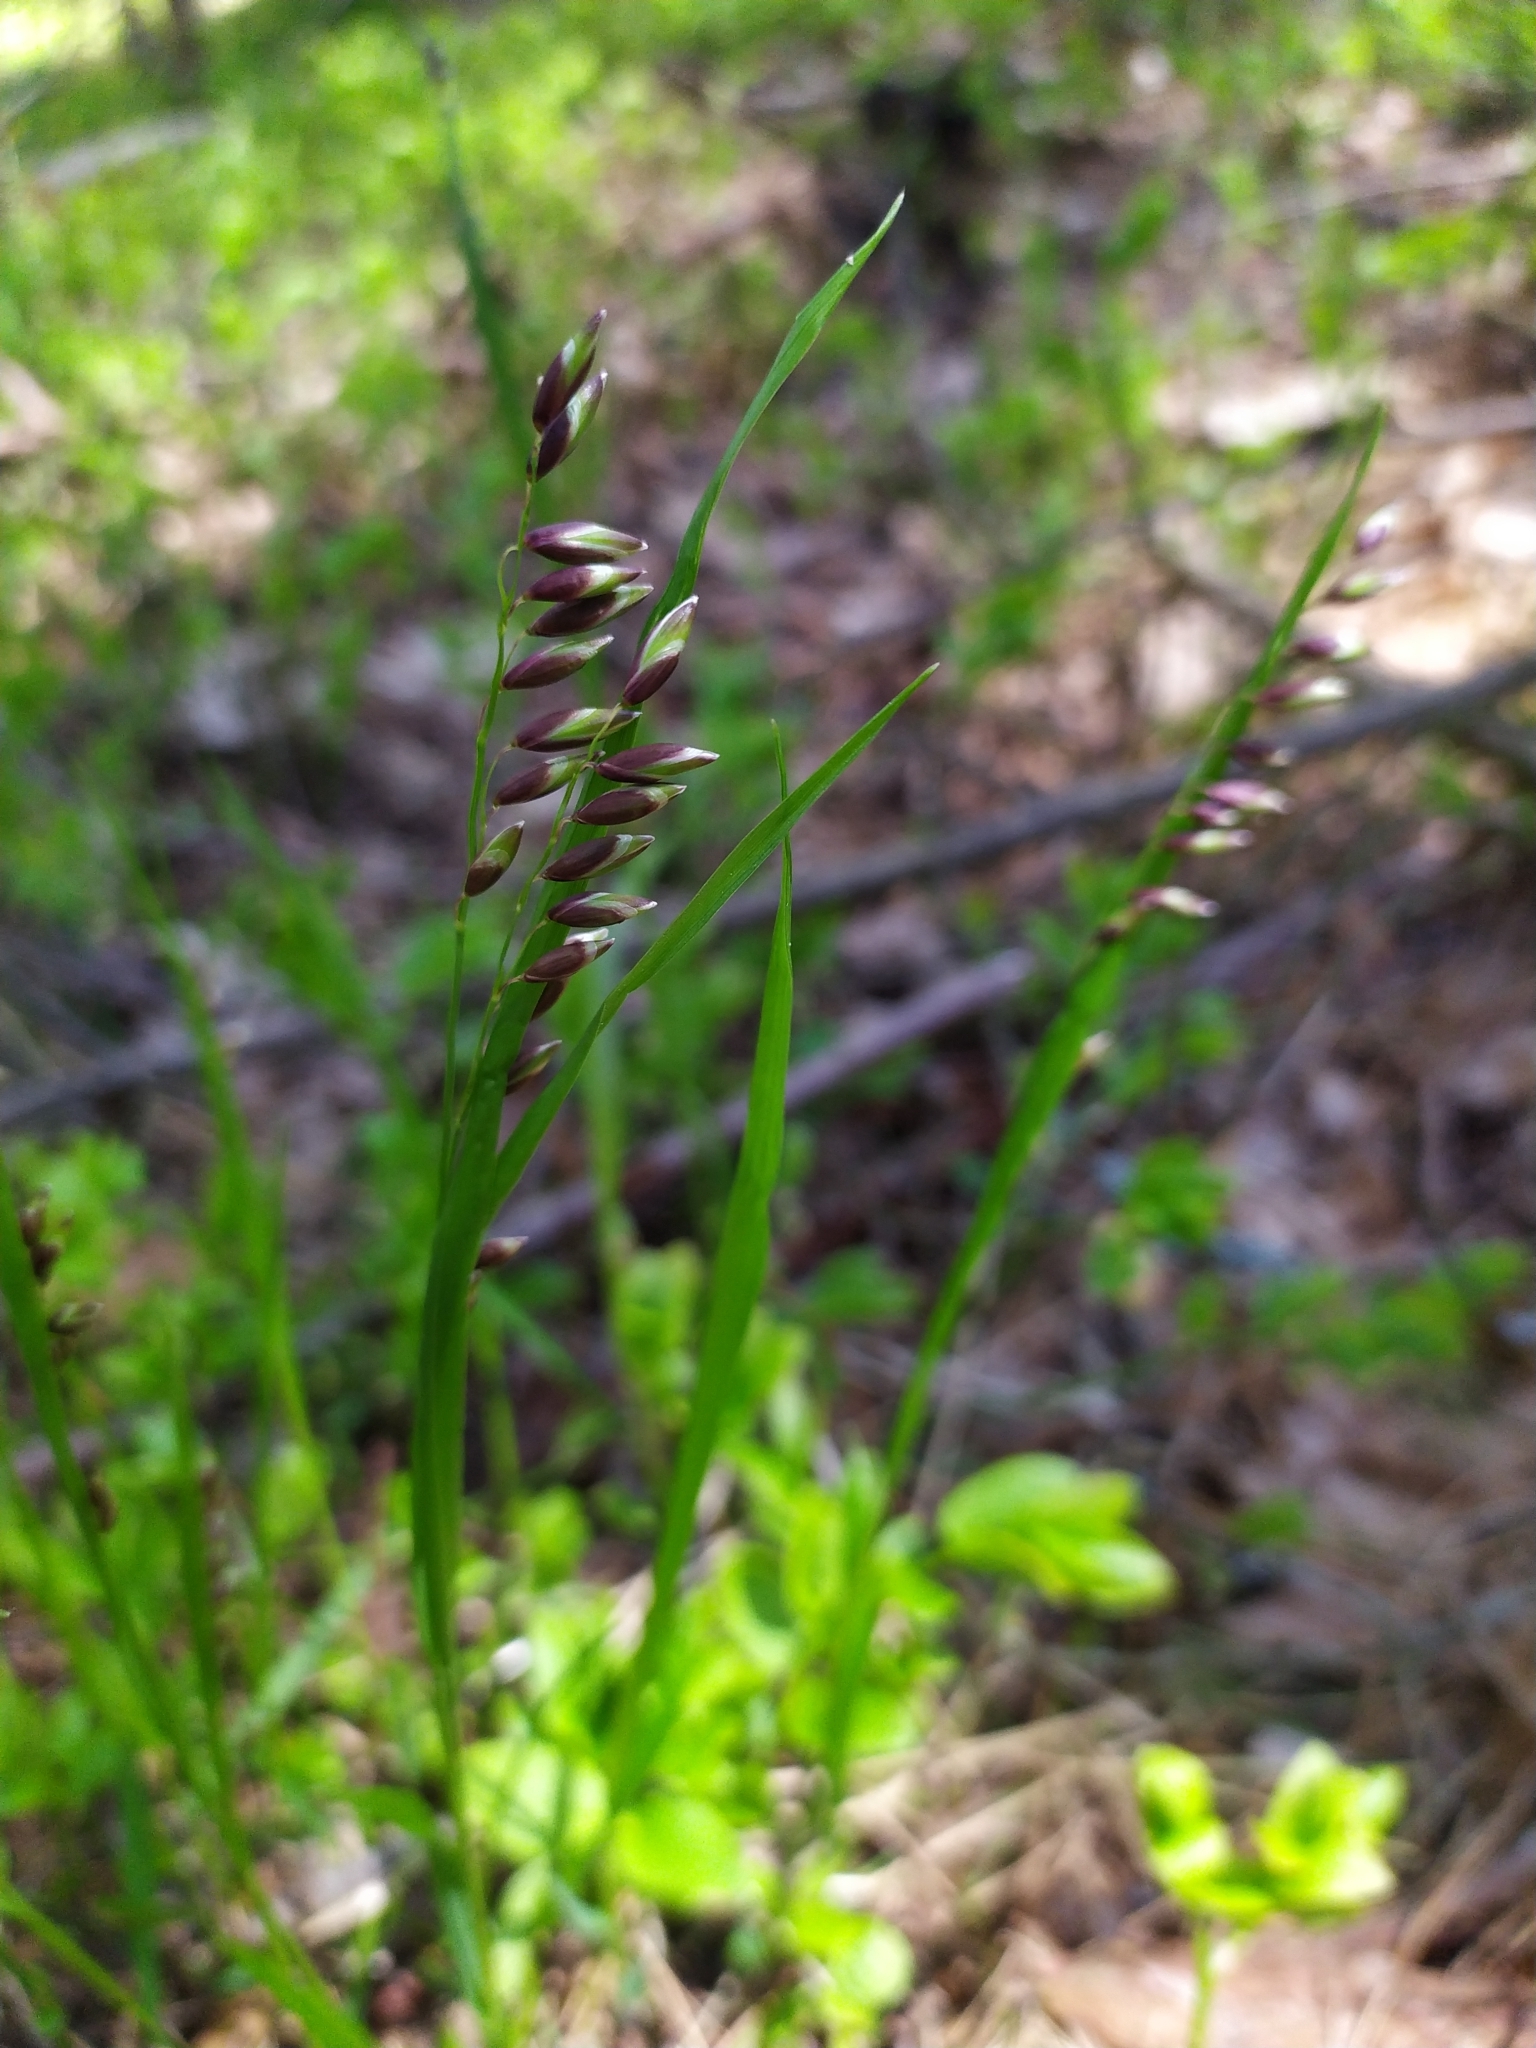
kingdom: Plantae
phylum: Tracheophyta
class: Liliopsida
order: Poales
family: Poaceae
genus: Melica
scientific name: Melica nutans
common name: Mountain melick
